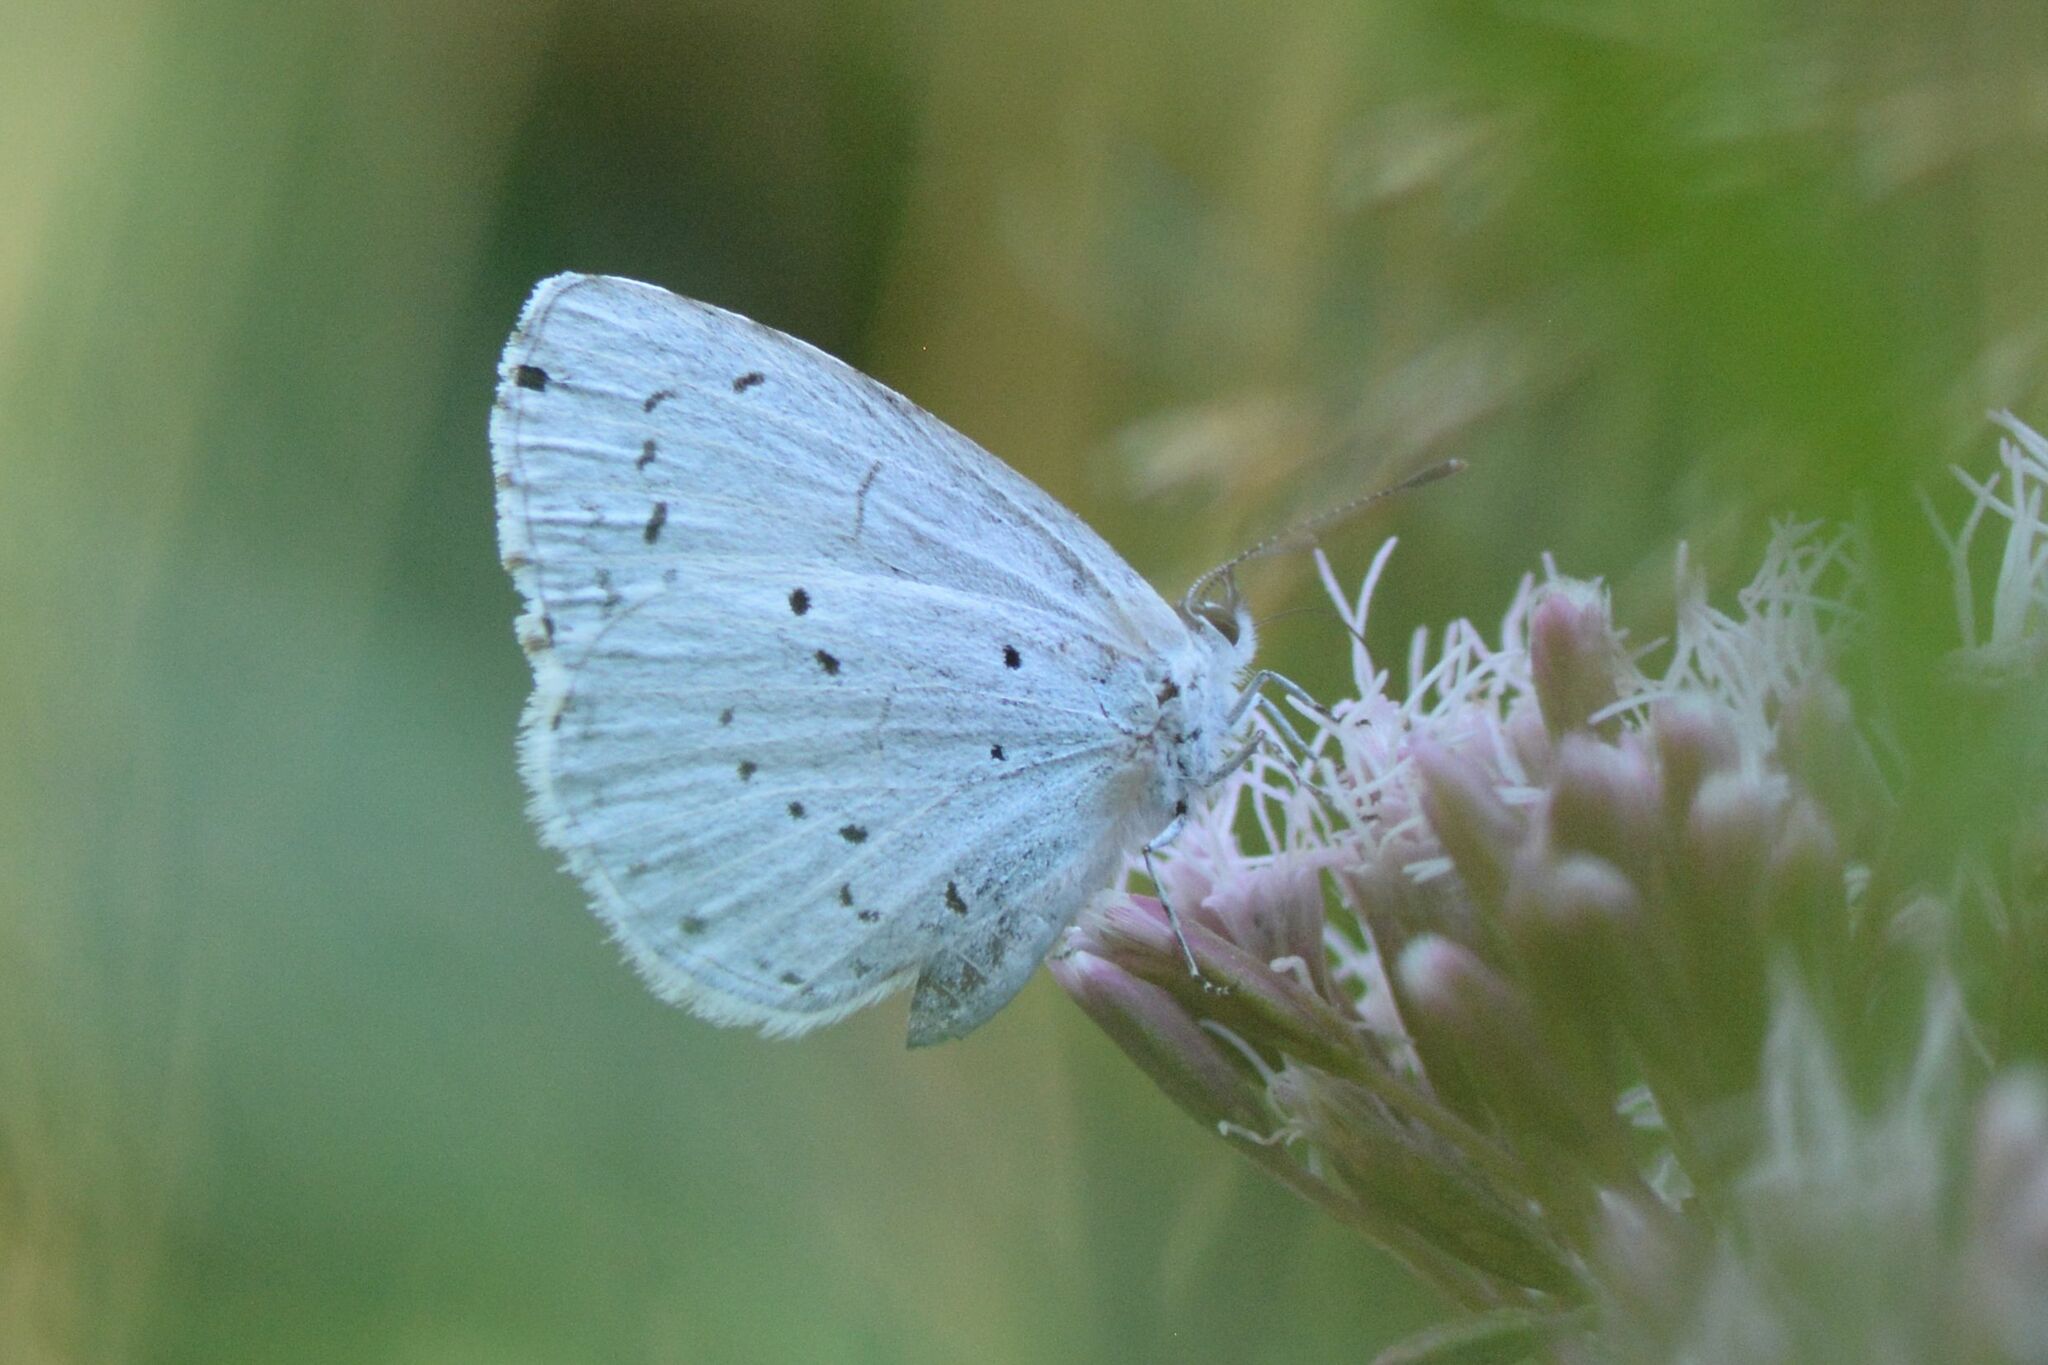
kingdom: Animalia
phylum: Arthropoda
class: Insecta
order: Lepidoptera
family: Lycaenidae
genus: Celastrina
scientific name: Celastrina argiolus
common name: Holly blue
